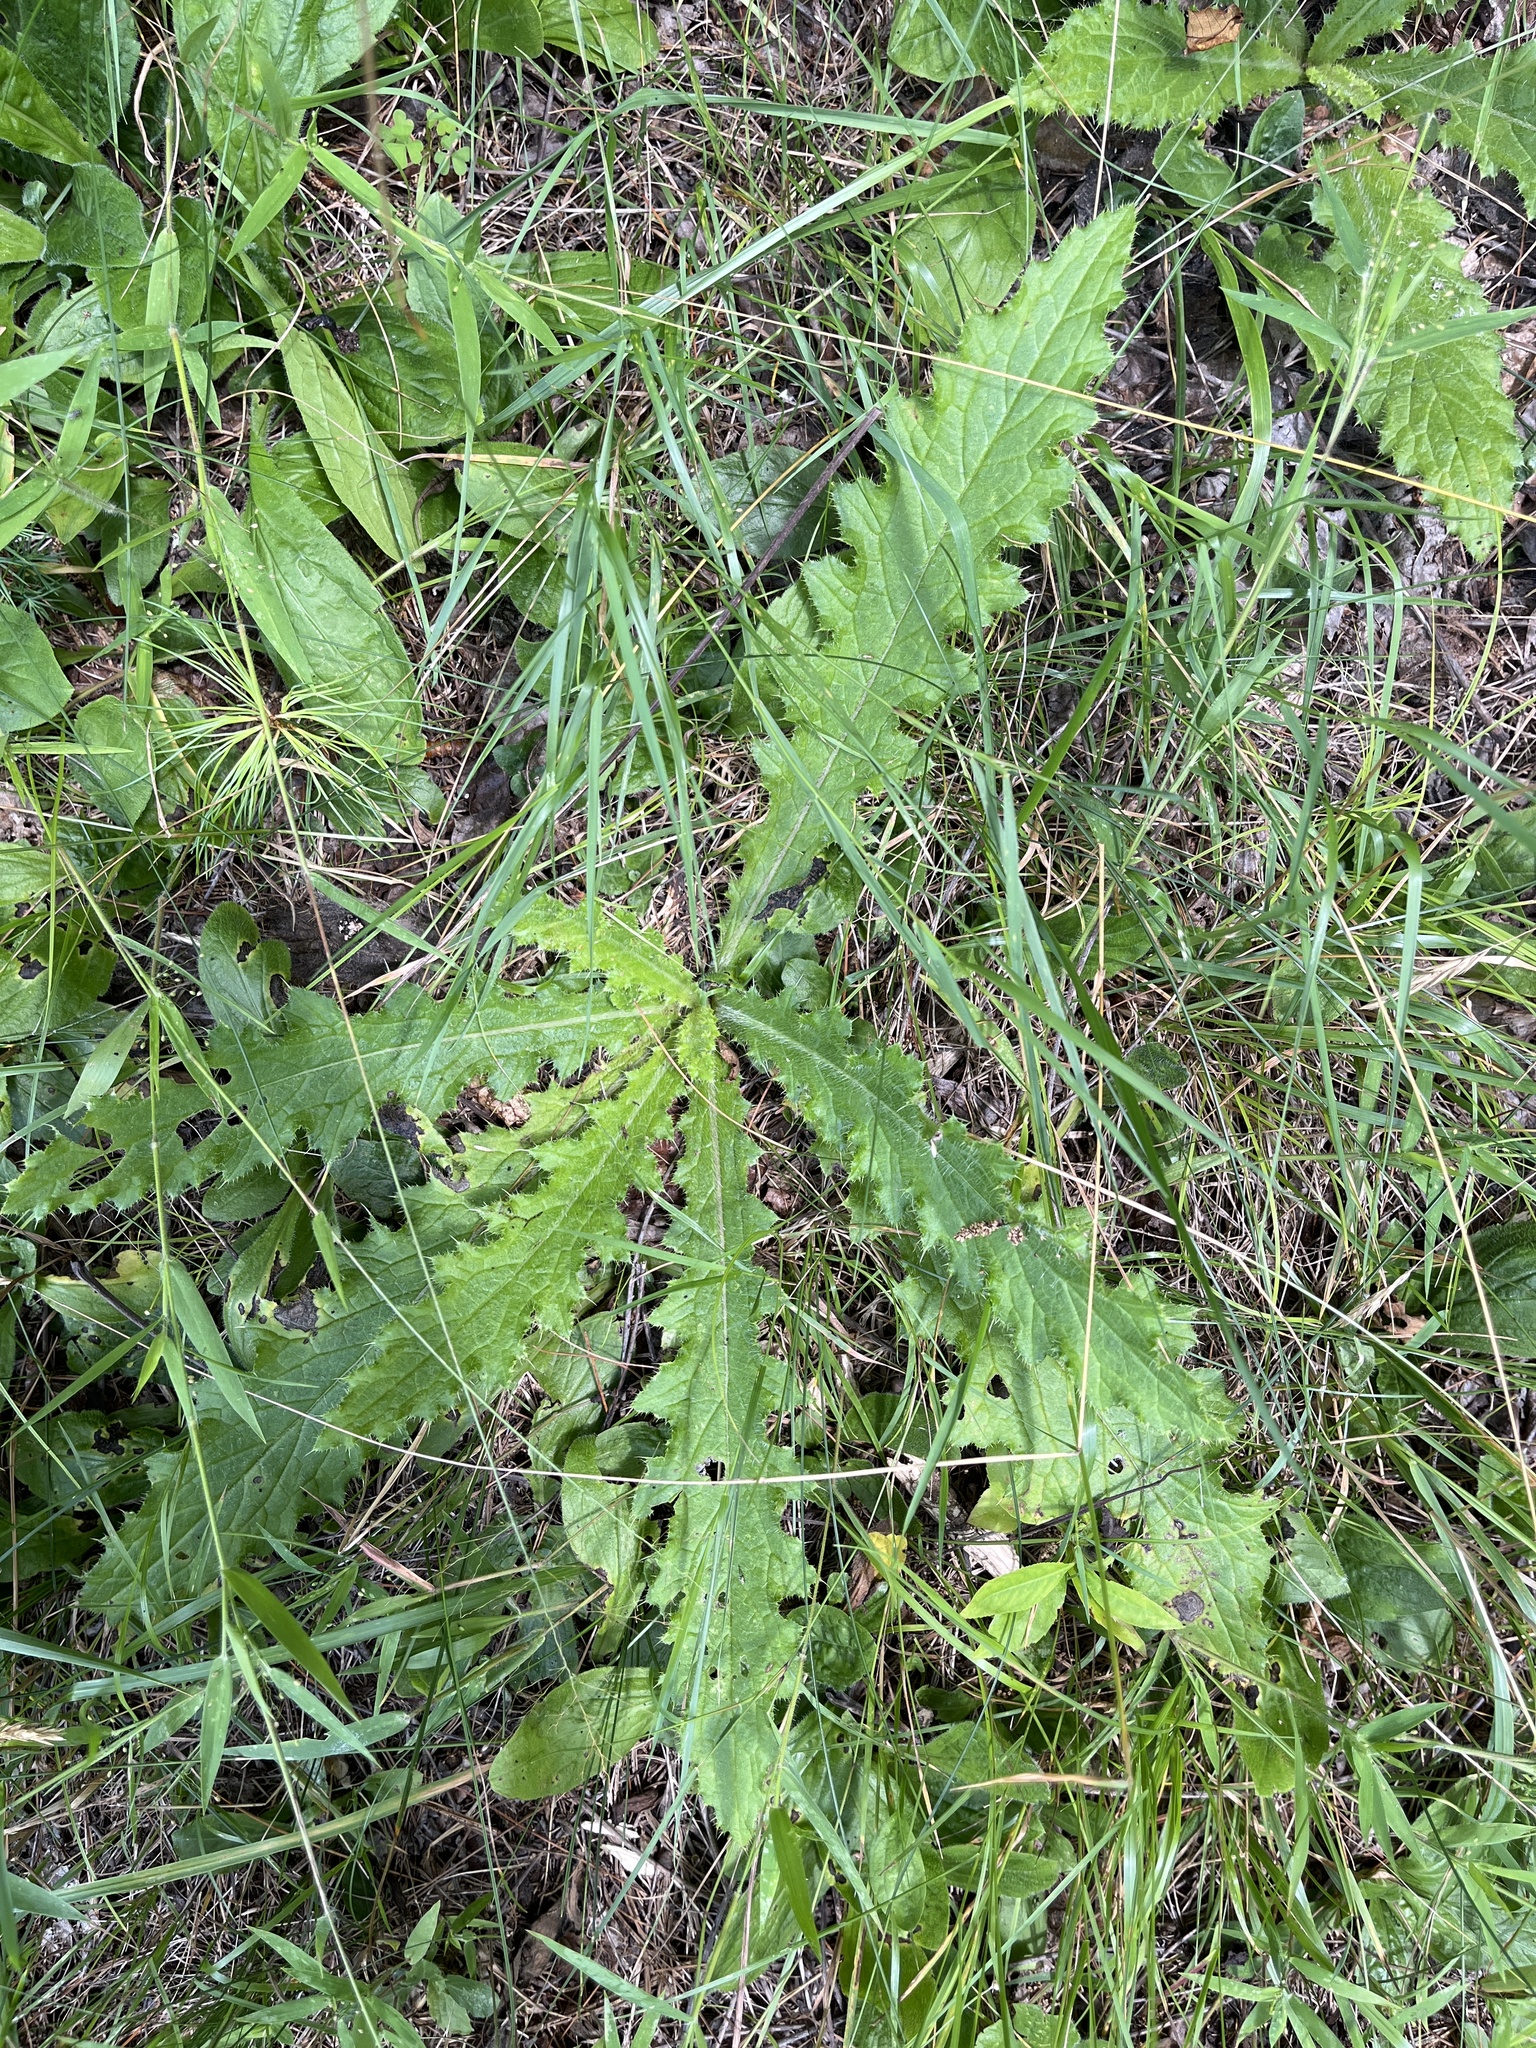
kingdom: Plantae
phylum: Tracheophyta
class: Magnoliopsida
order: Asterales
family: Asteraceae
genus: Cirsium
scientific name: Cirsium pumilum
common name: Pasture thistle
